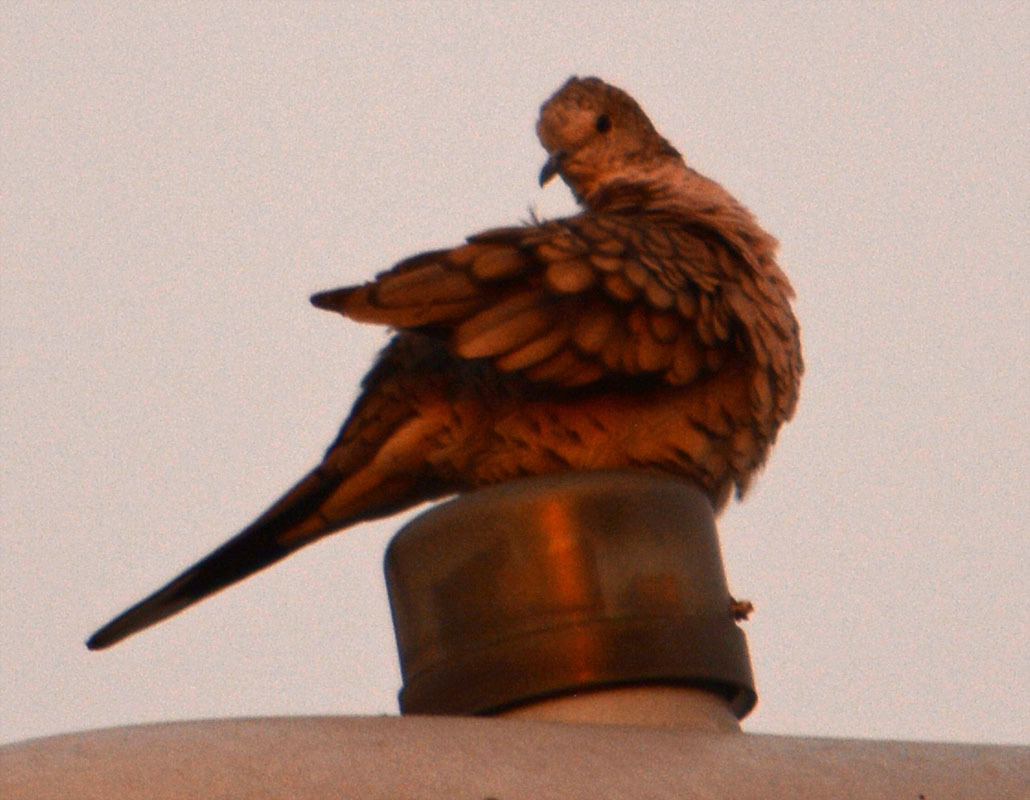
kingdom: Animalia
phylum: Chordata
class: Aves
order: Columbiformes
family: Columbidae
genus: Columbina
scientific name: Columbina inca
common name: Inca dove
